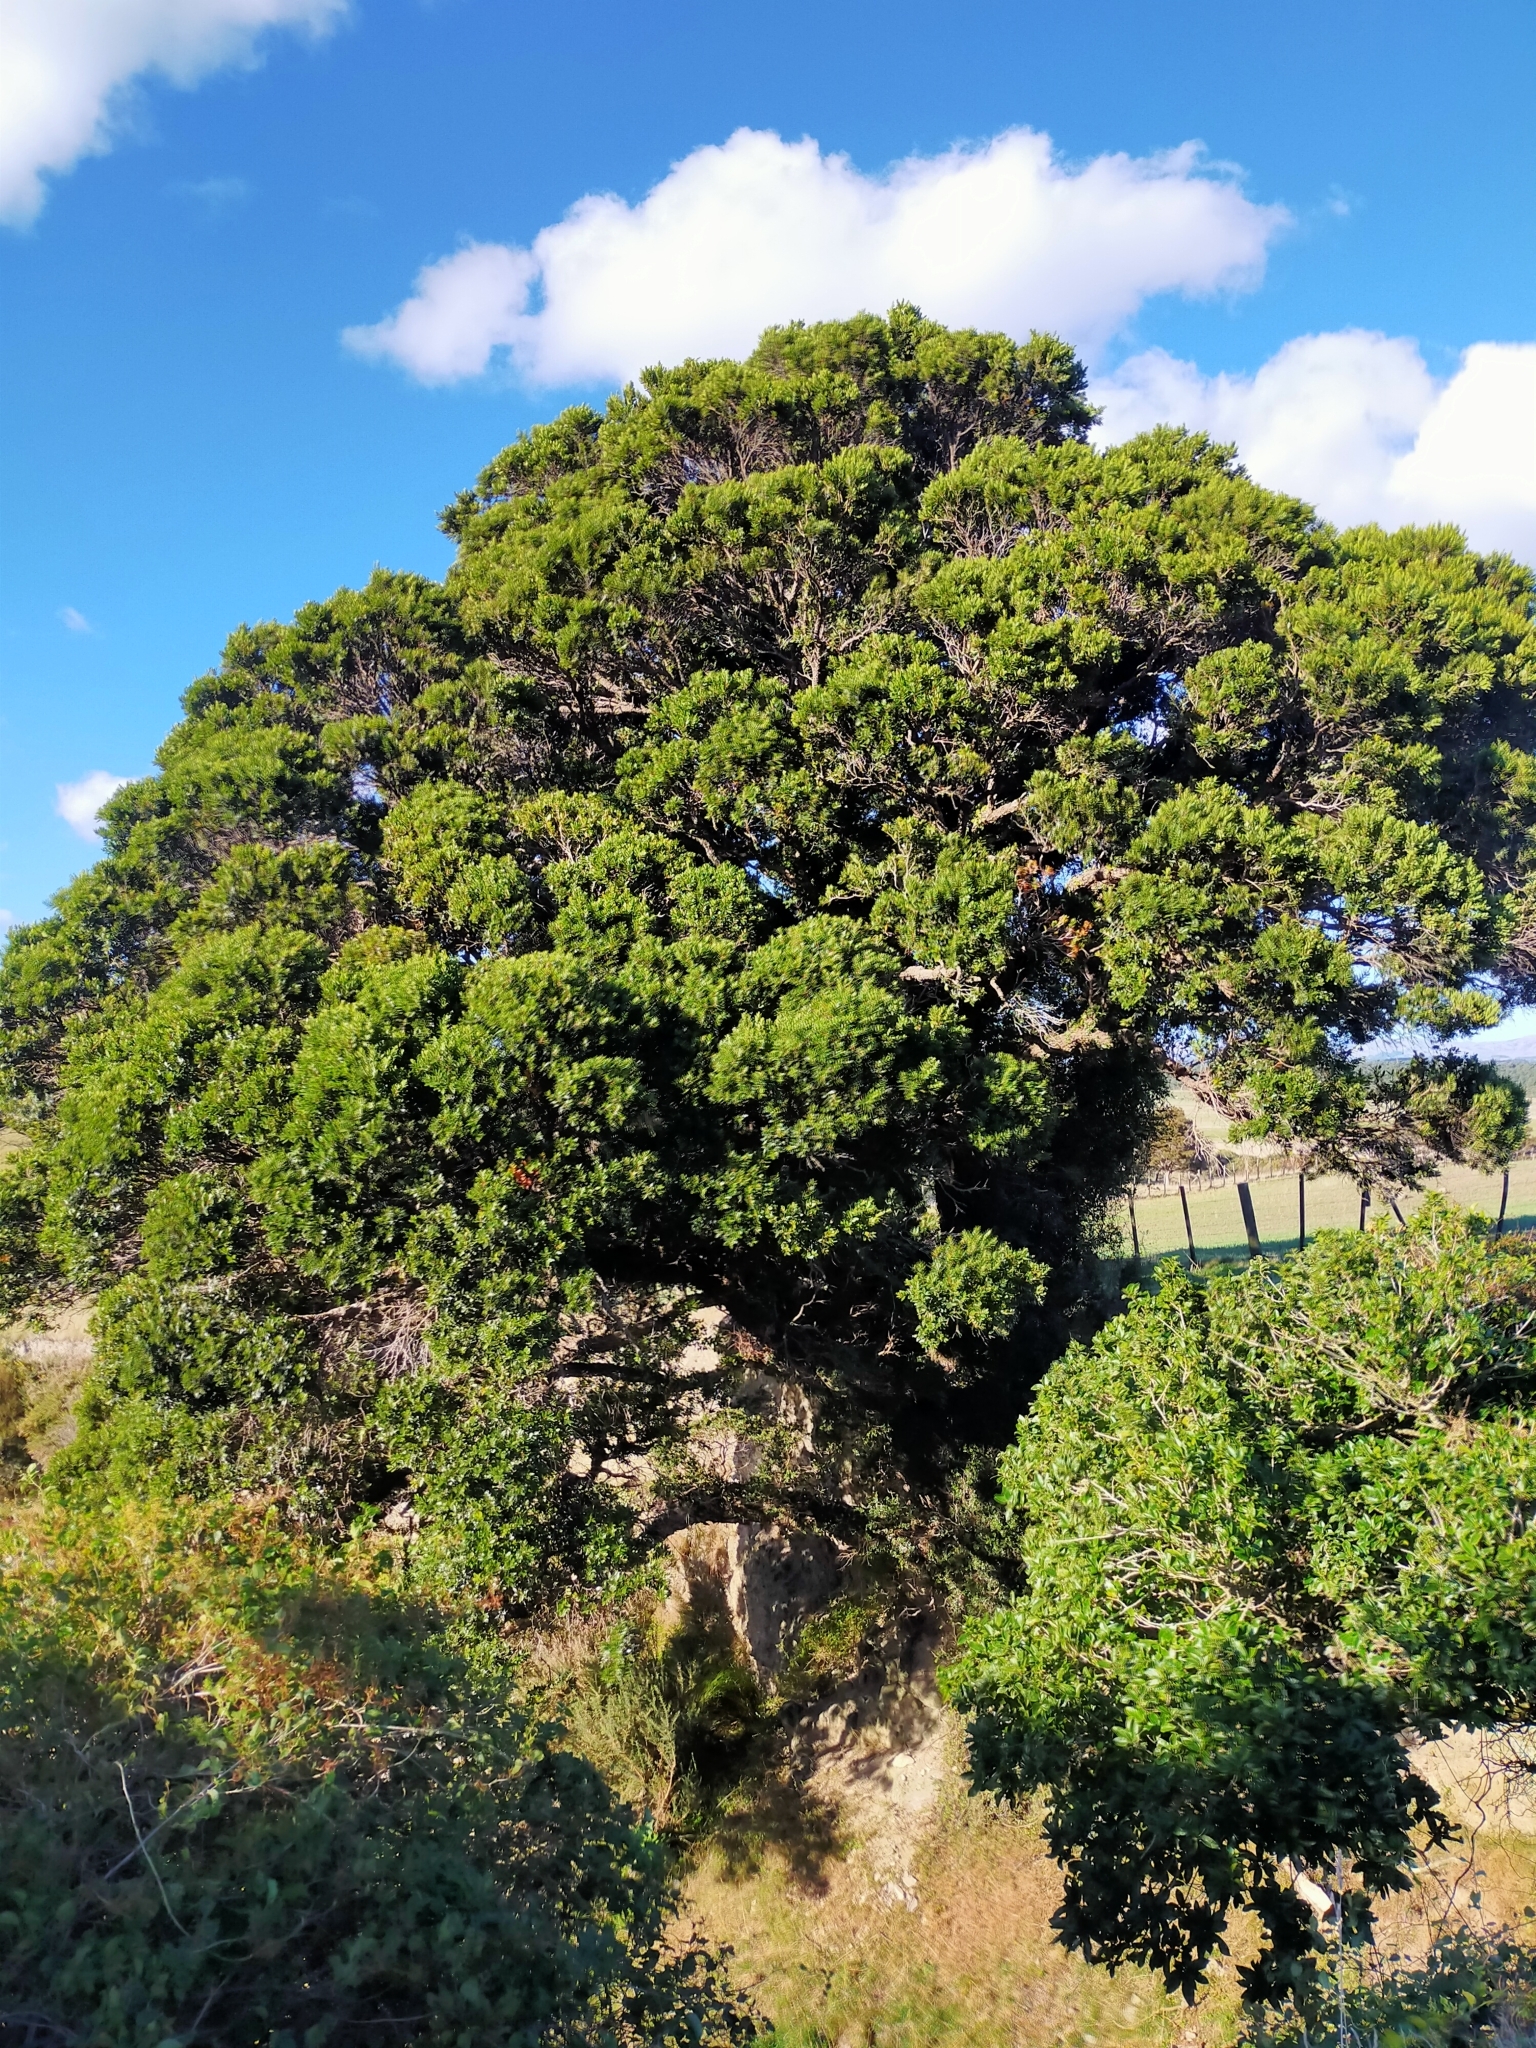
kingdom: Plantae
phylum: Tracheophyta
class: Magnoliopsida
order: Myrtales
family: Myrtaceae
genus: Metrosideros
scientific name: Metrosideros robusta
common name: Northern rata
